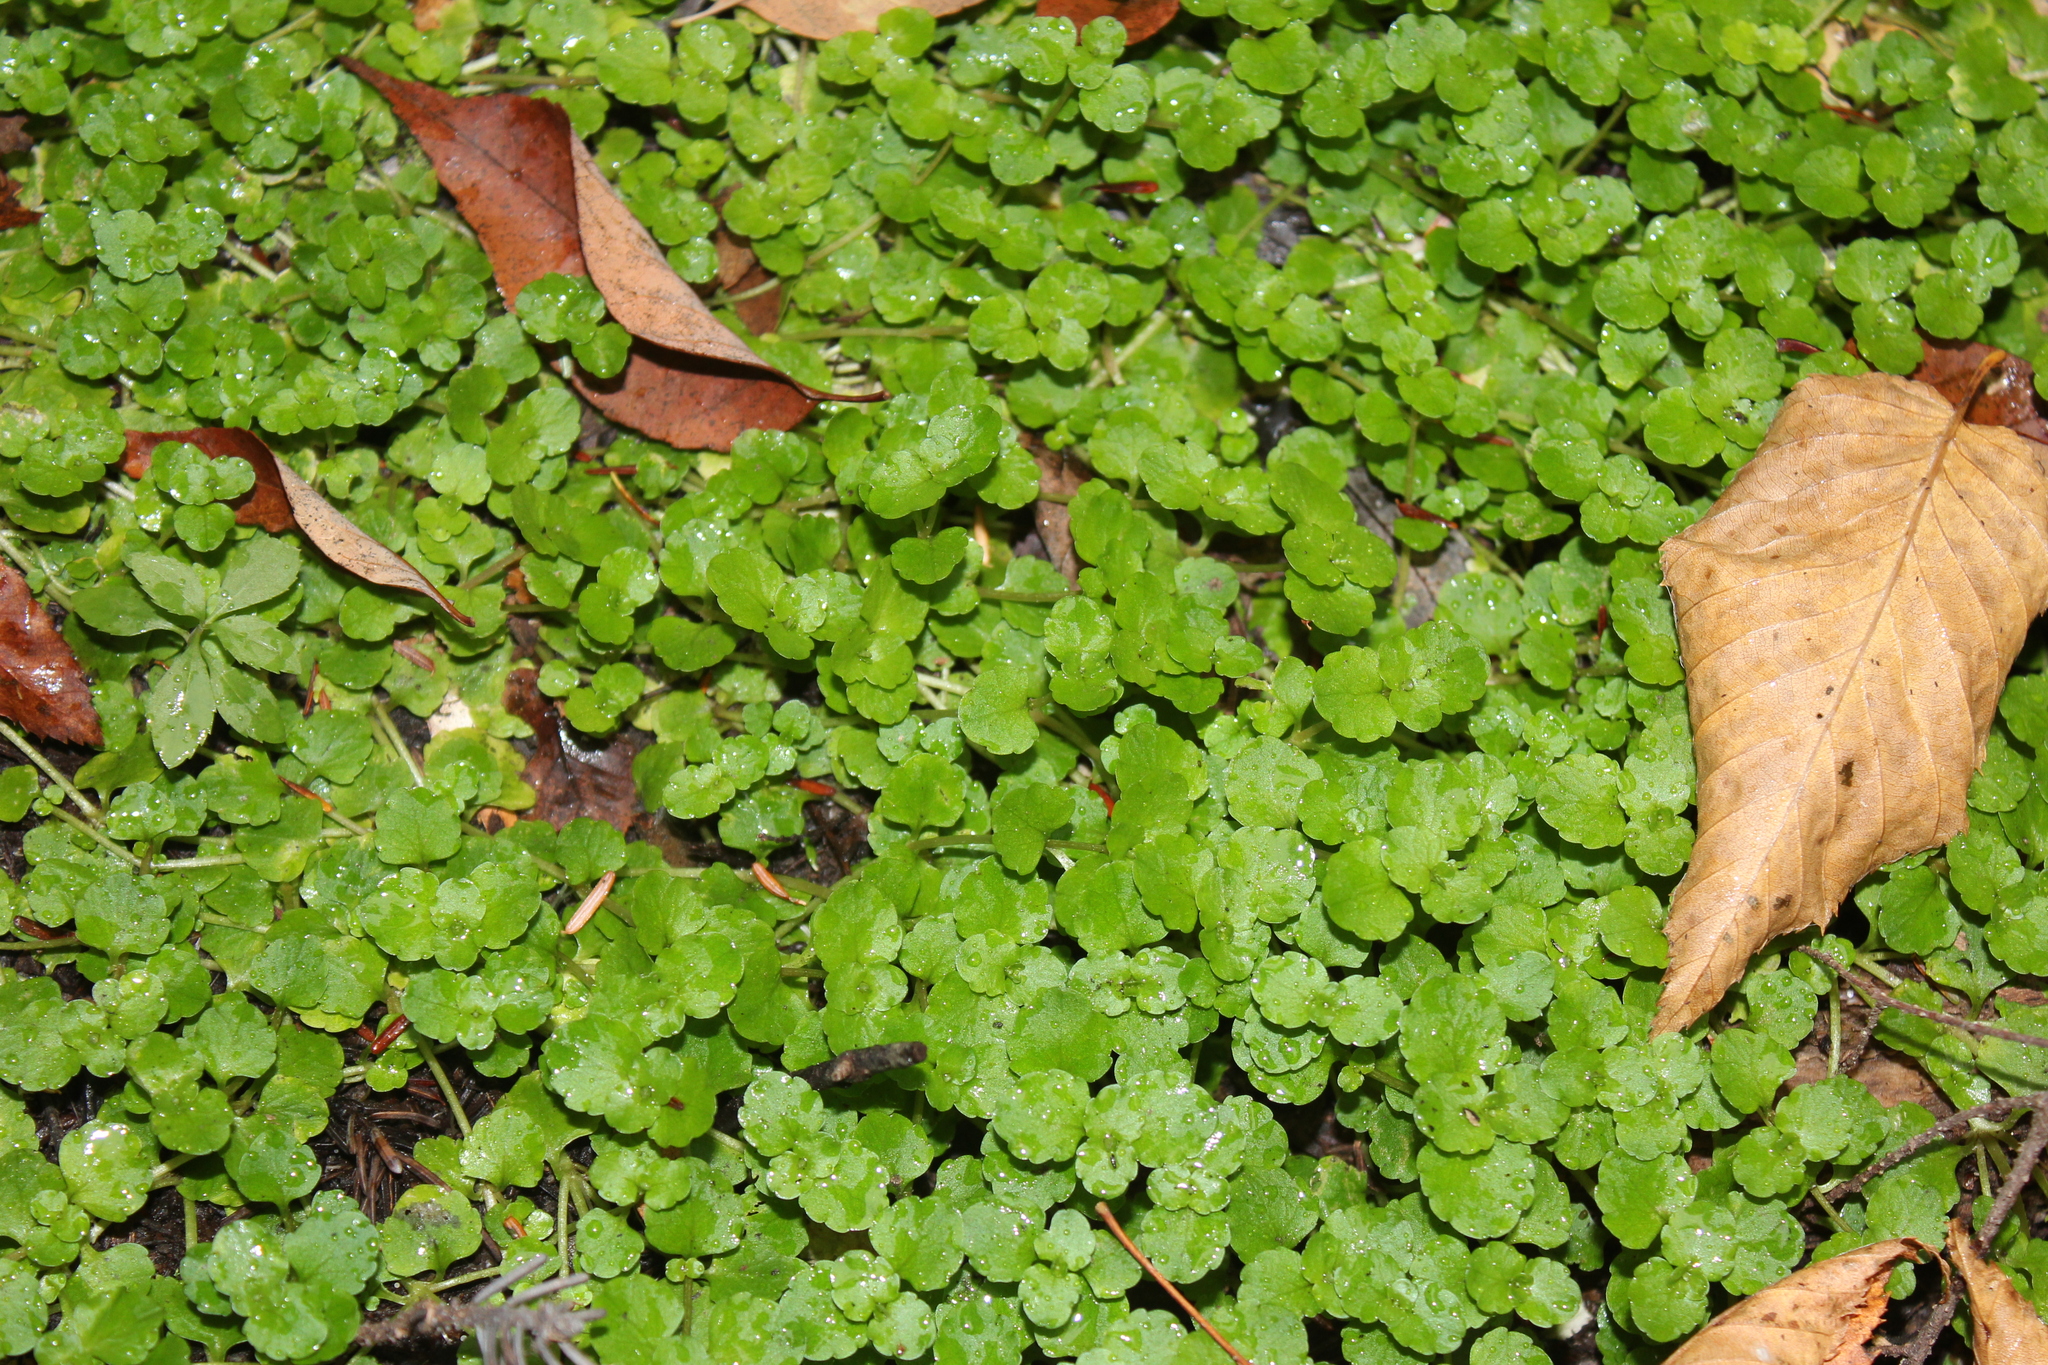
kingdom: Plantae
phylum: Tracheophyta
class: Magnoliopsida
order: Saxifragales
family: Saxifragaceae
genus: Chrysosplenium
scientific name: Chrysosplenium americanum
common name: American golden-saxifrage
